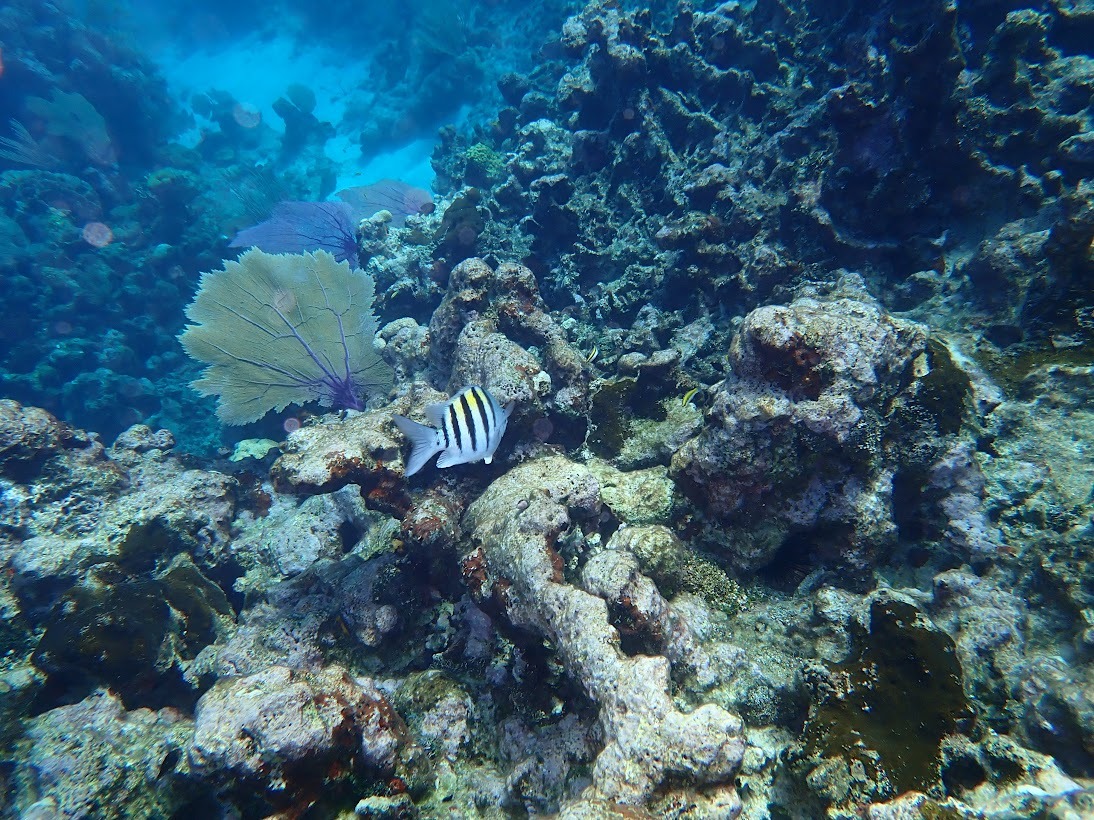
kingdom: Animalia
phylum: Chordata
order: Perciformes
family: Pomacentridae
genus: Abudefduf
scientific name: Abudefduf saxatilis
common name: Sergeant major
